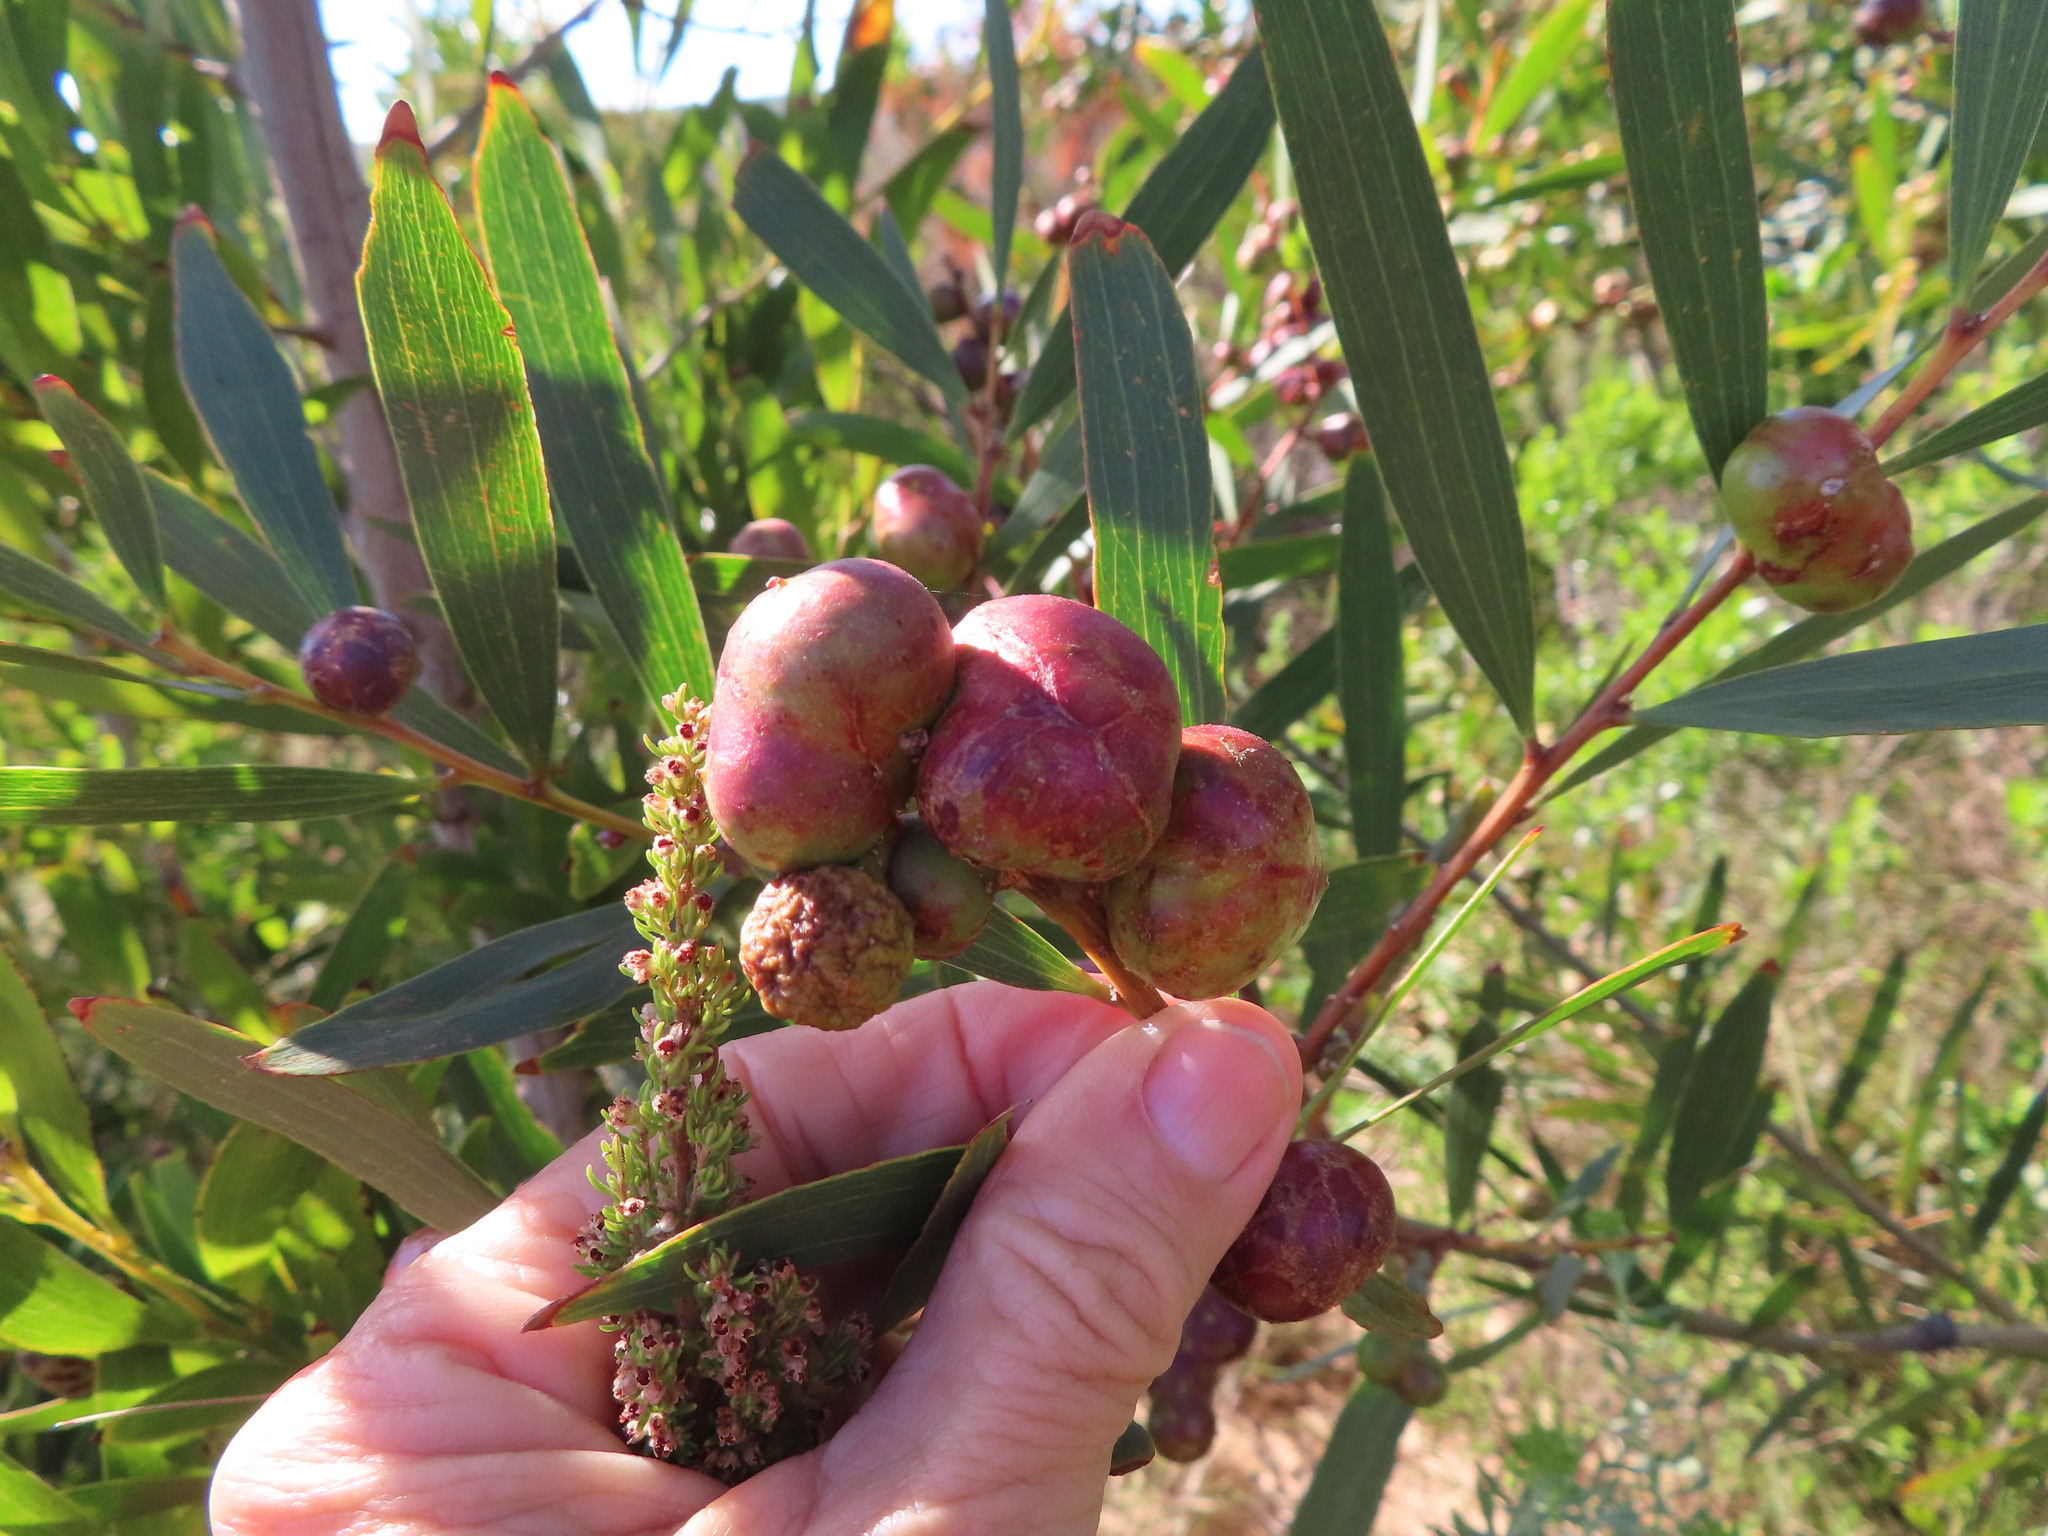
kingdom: Animalia
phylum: Arthropoda
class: Insecta
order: Hymenoptera
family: Pteromalidae
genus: Trichilogaster
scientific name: Trichilogaster acaciaelongifoliae
